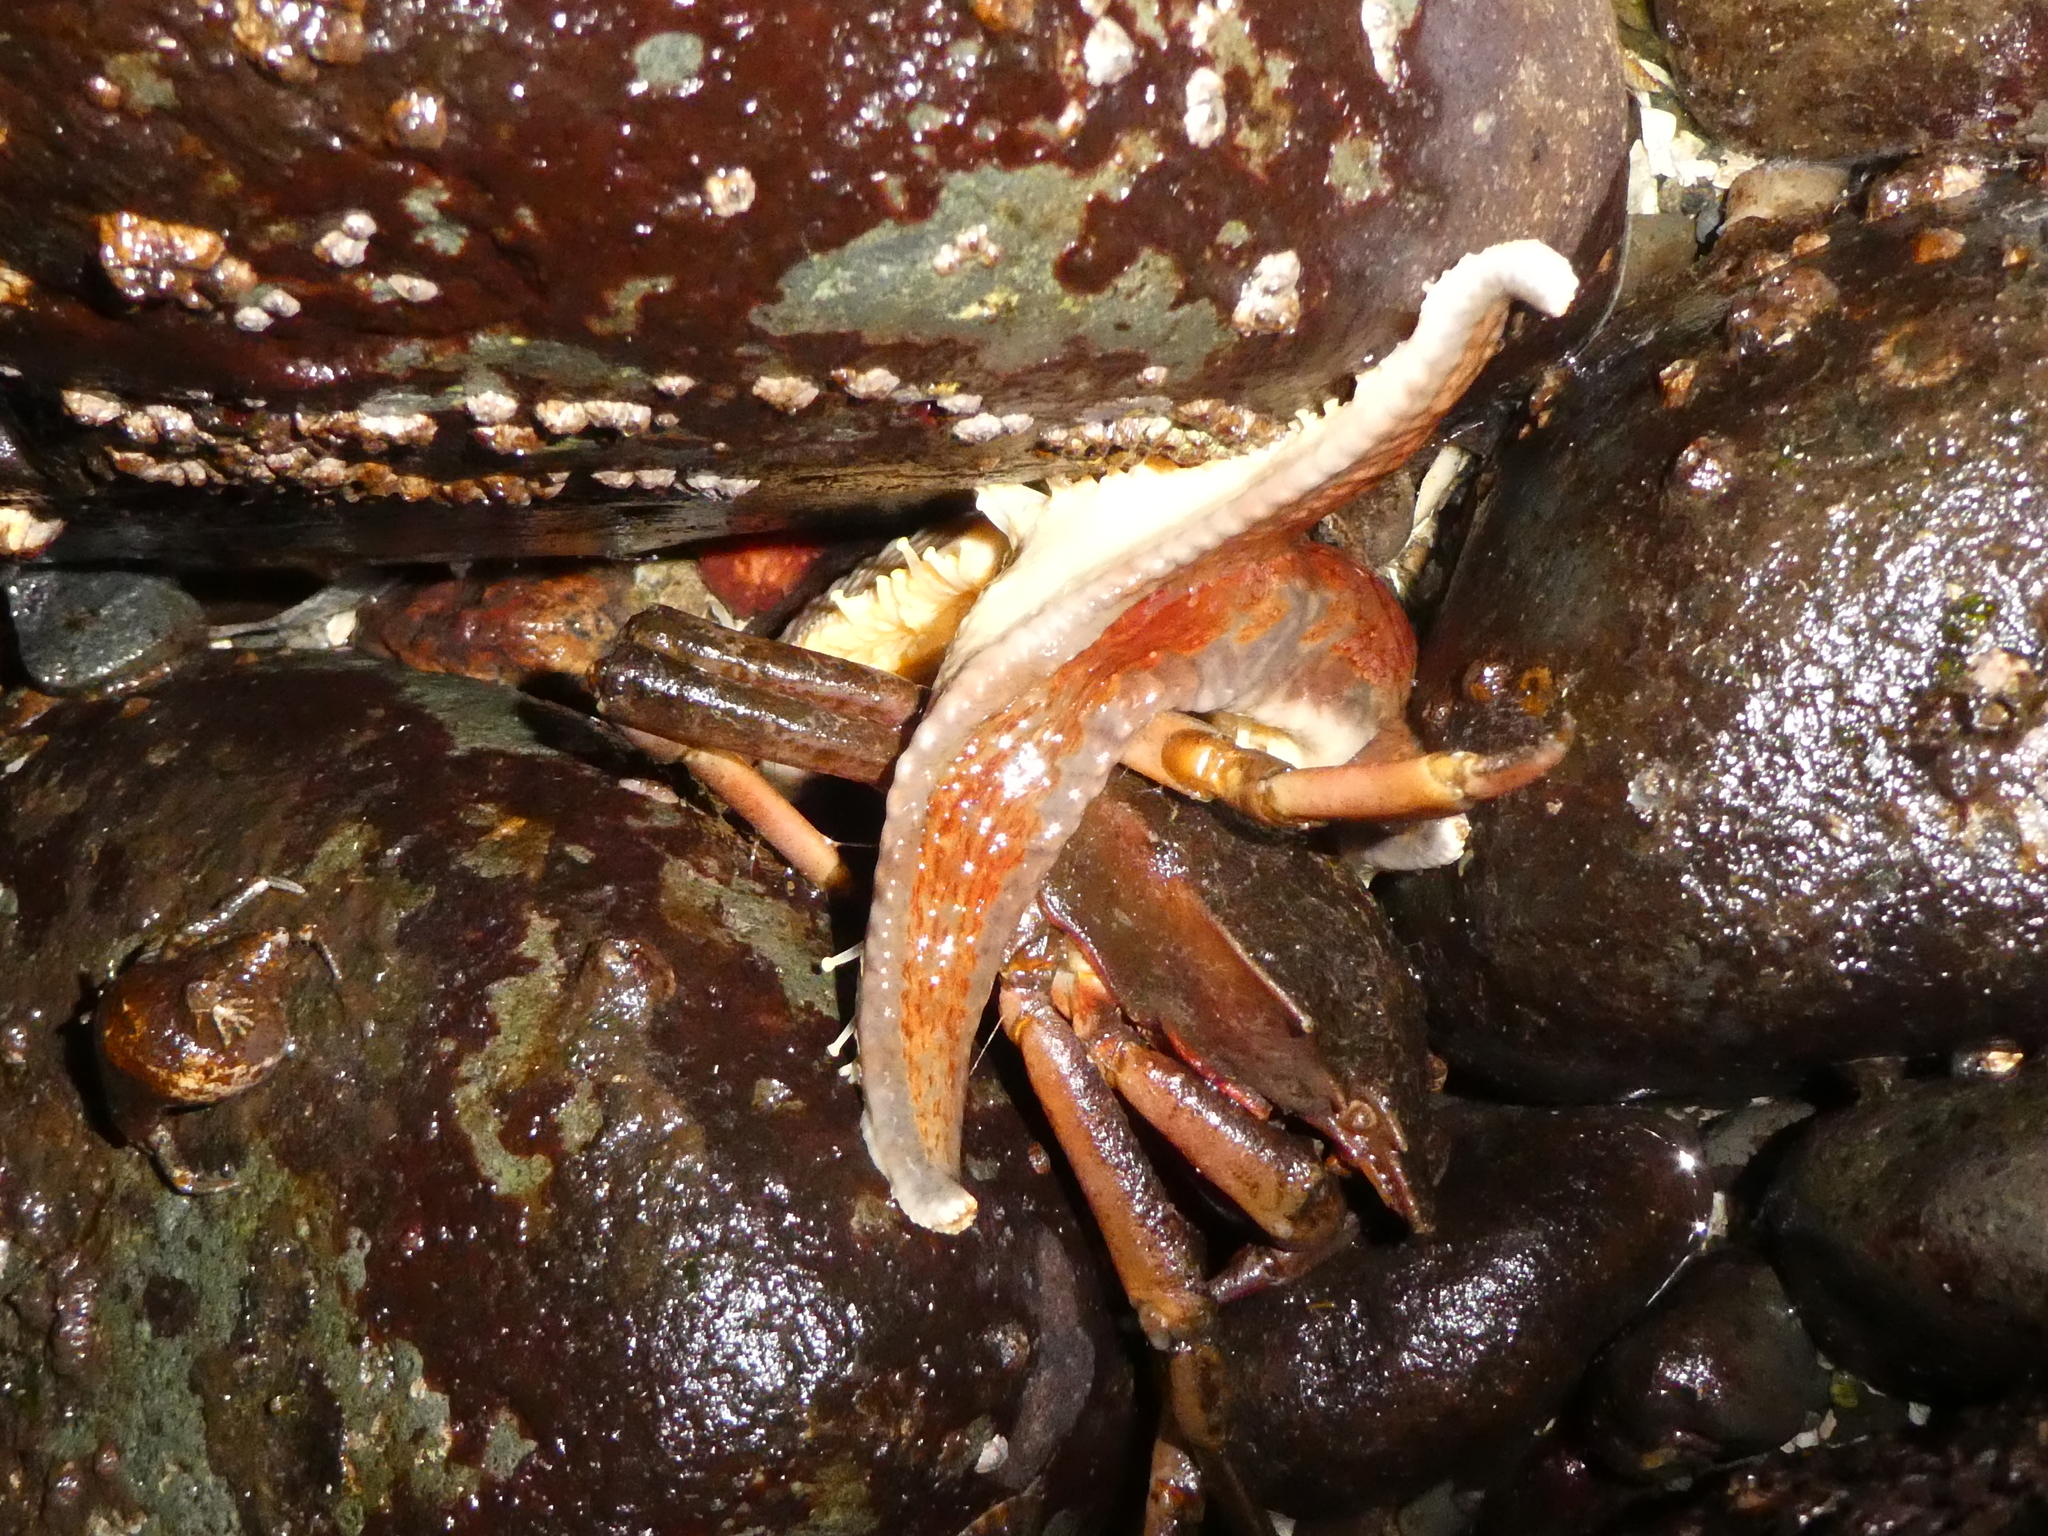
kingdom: Animalia
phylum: Echinodermata
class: Asteroidea
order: Valvatida
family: Asteropseidae
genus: Dermasterias
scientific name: Dermasterias imbricata
